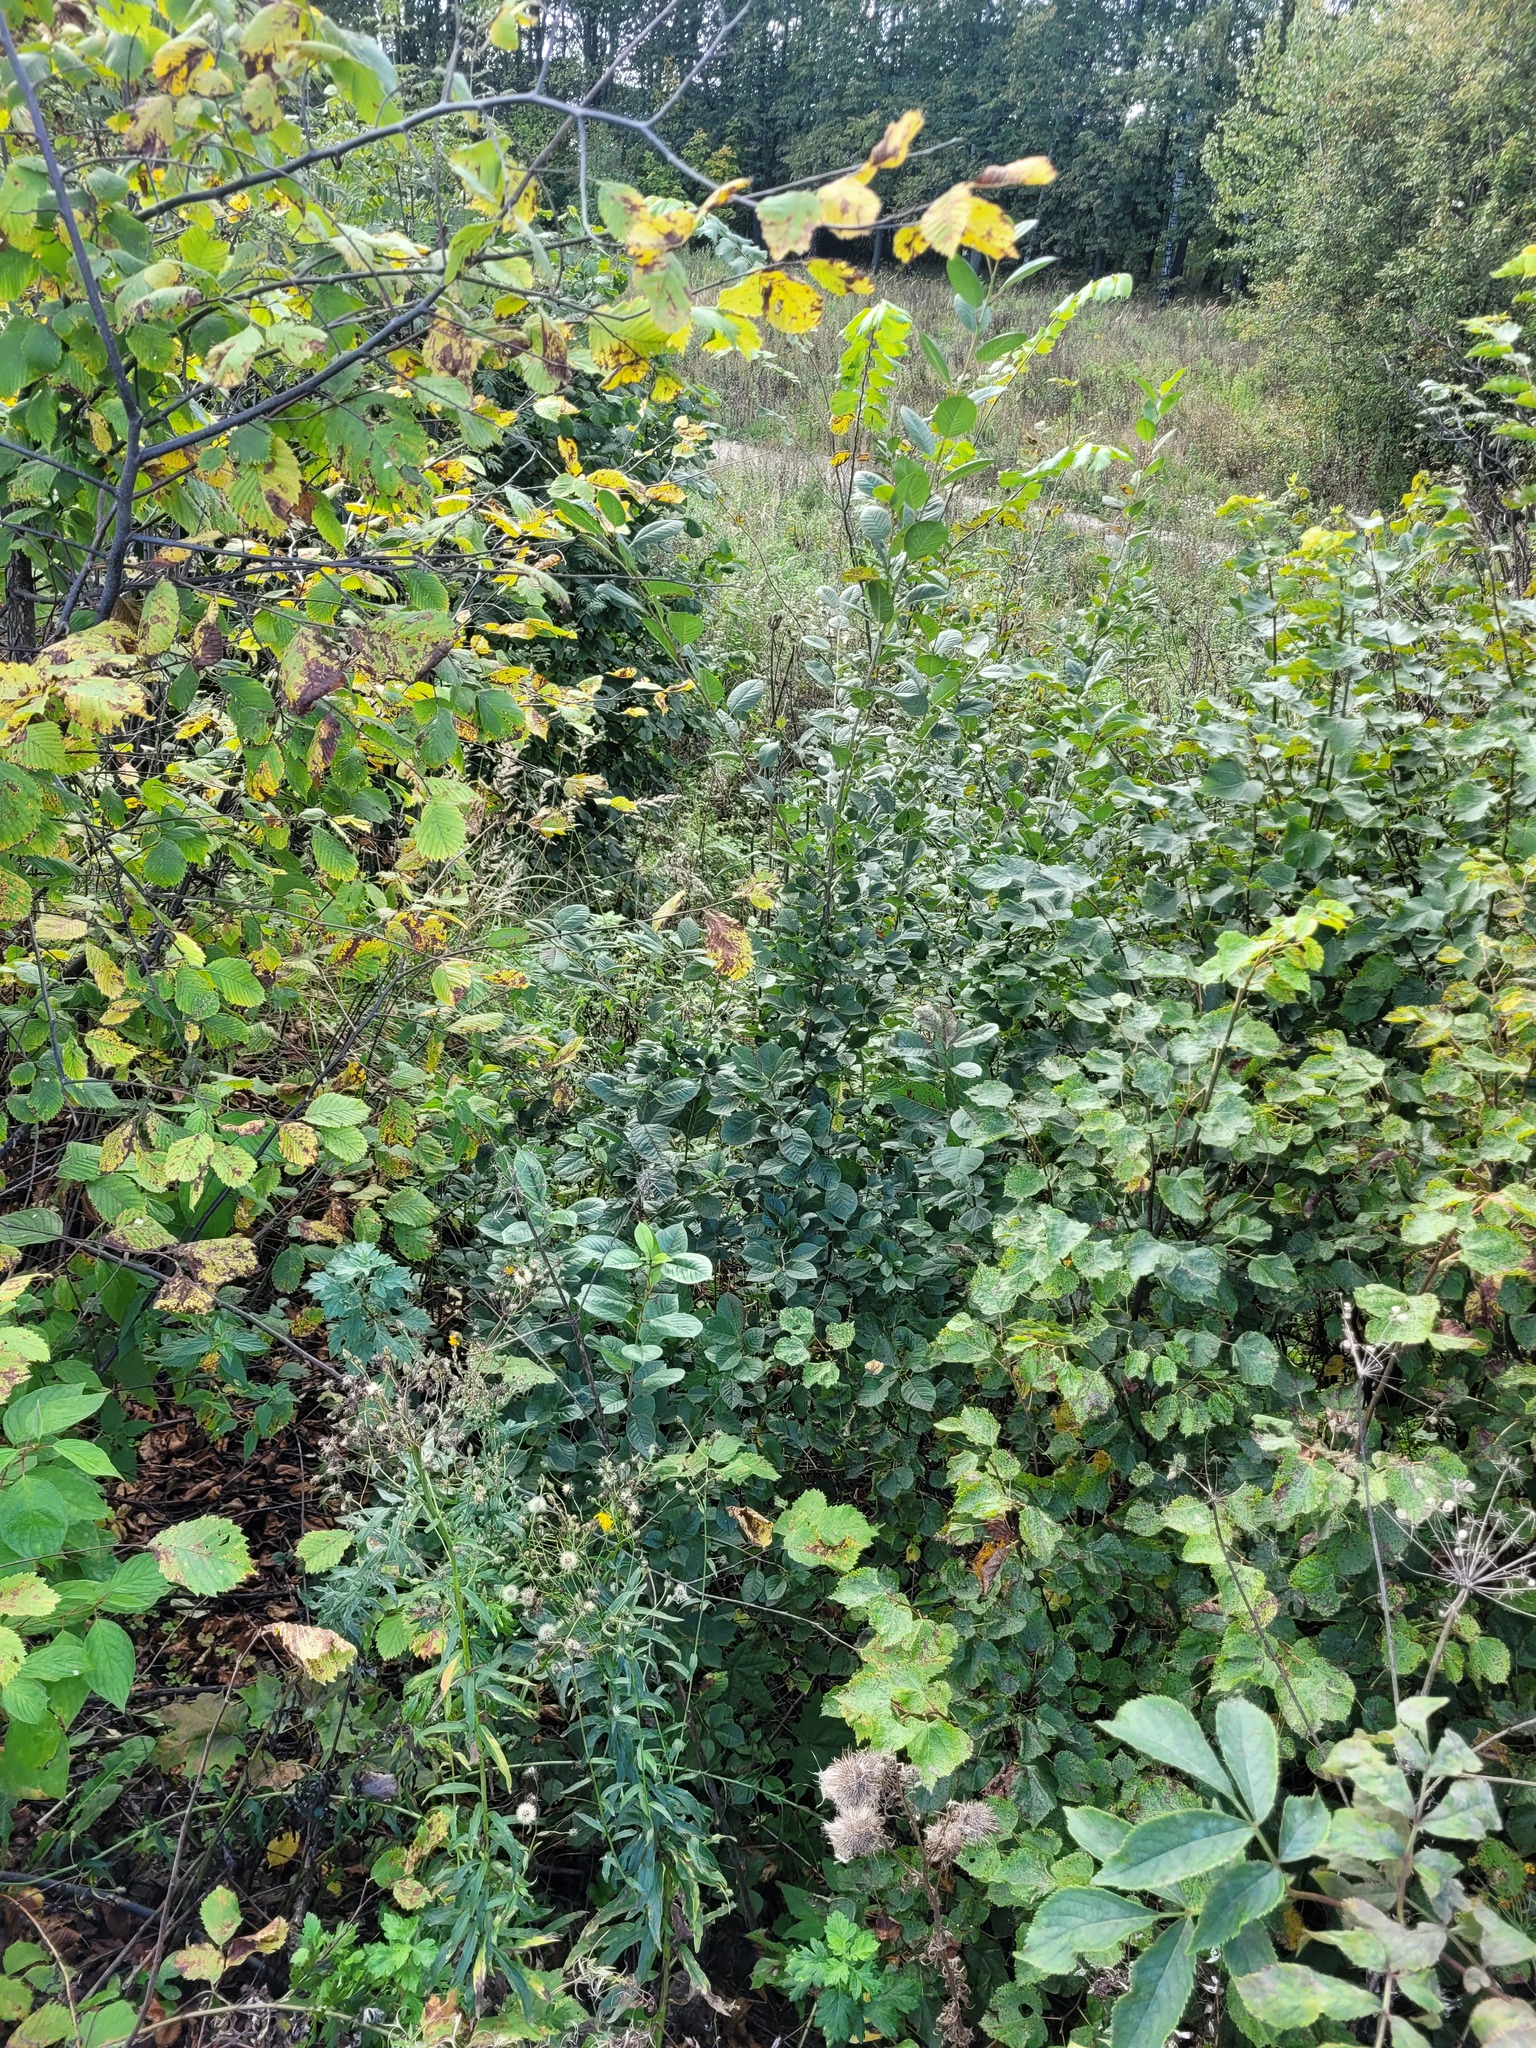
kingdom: Plantae
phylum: Tracheophyta
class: Magnoliopsida
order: Rosales
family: Rosaceae
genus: Prunus
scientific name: Prunus cerasus
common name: Morello cherry
